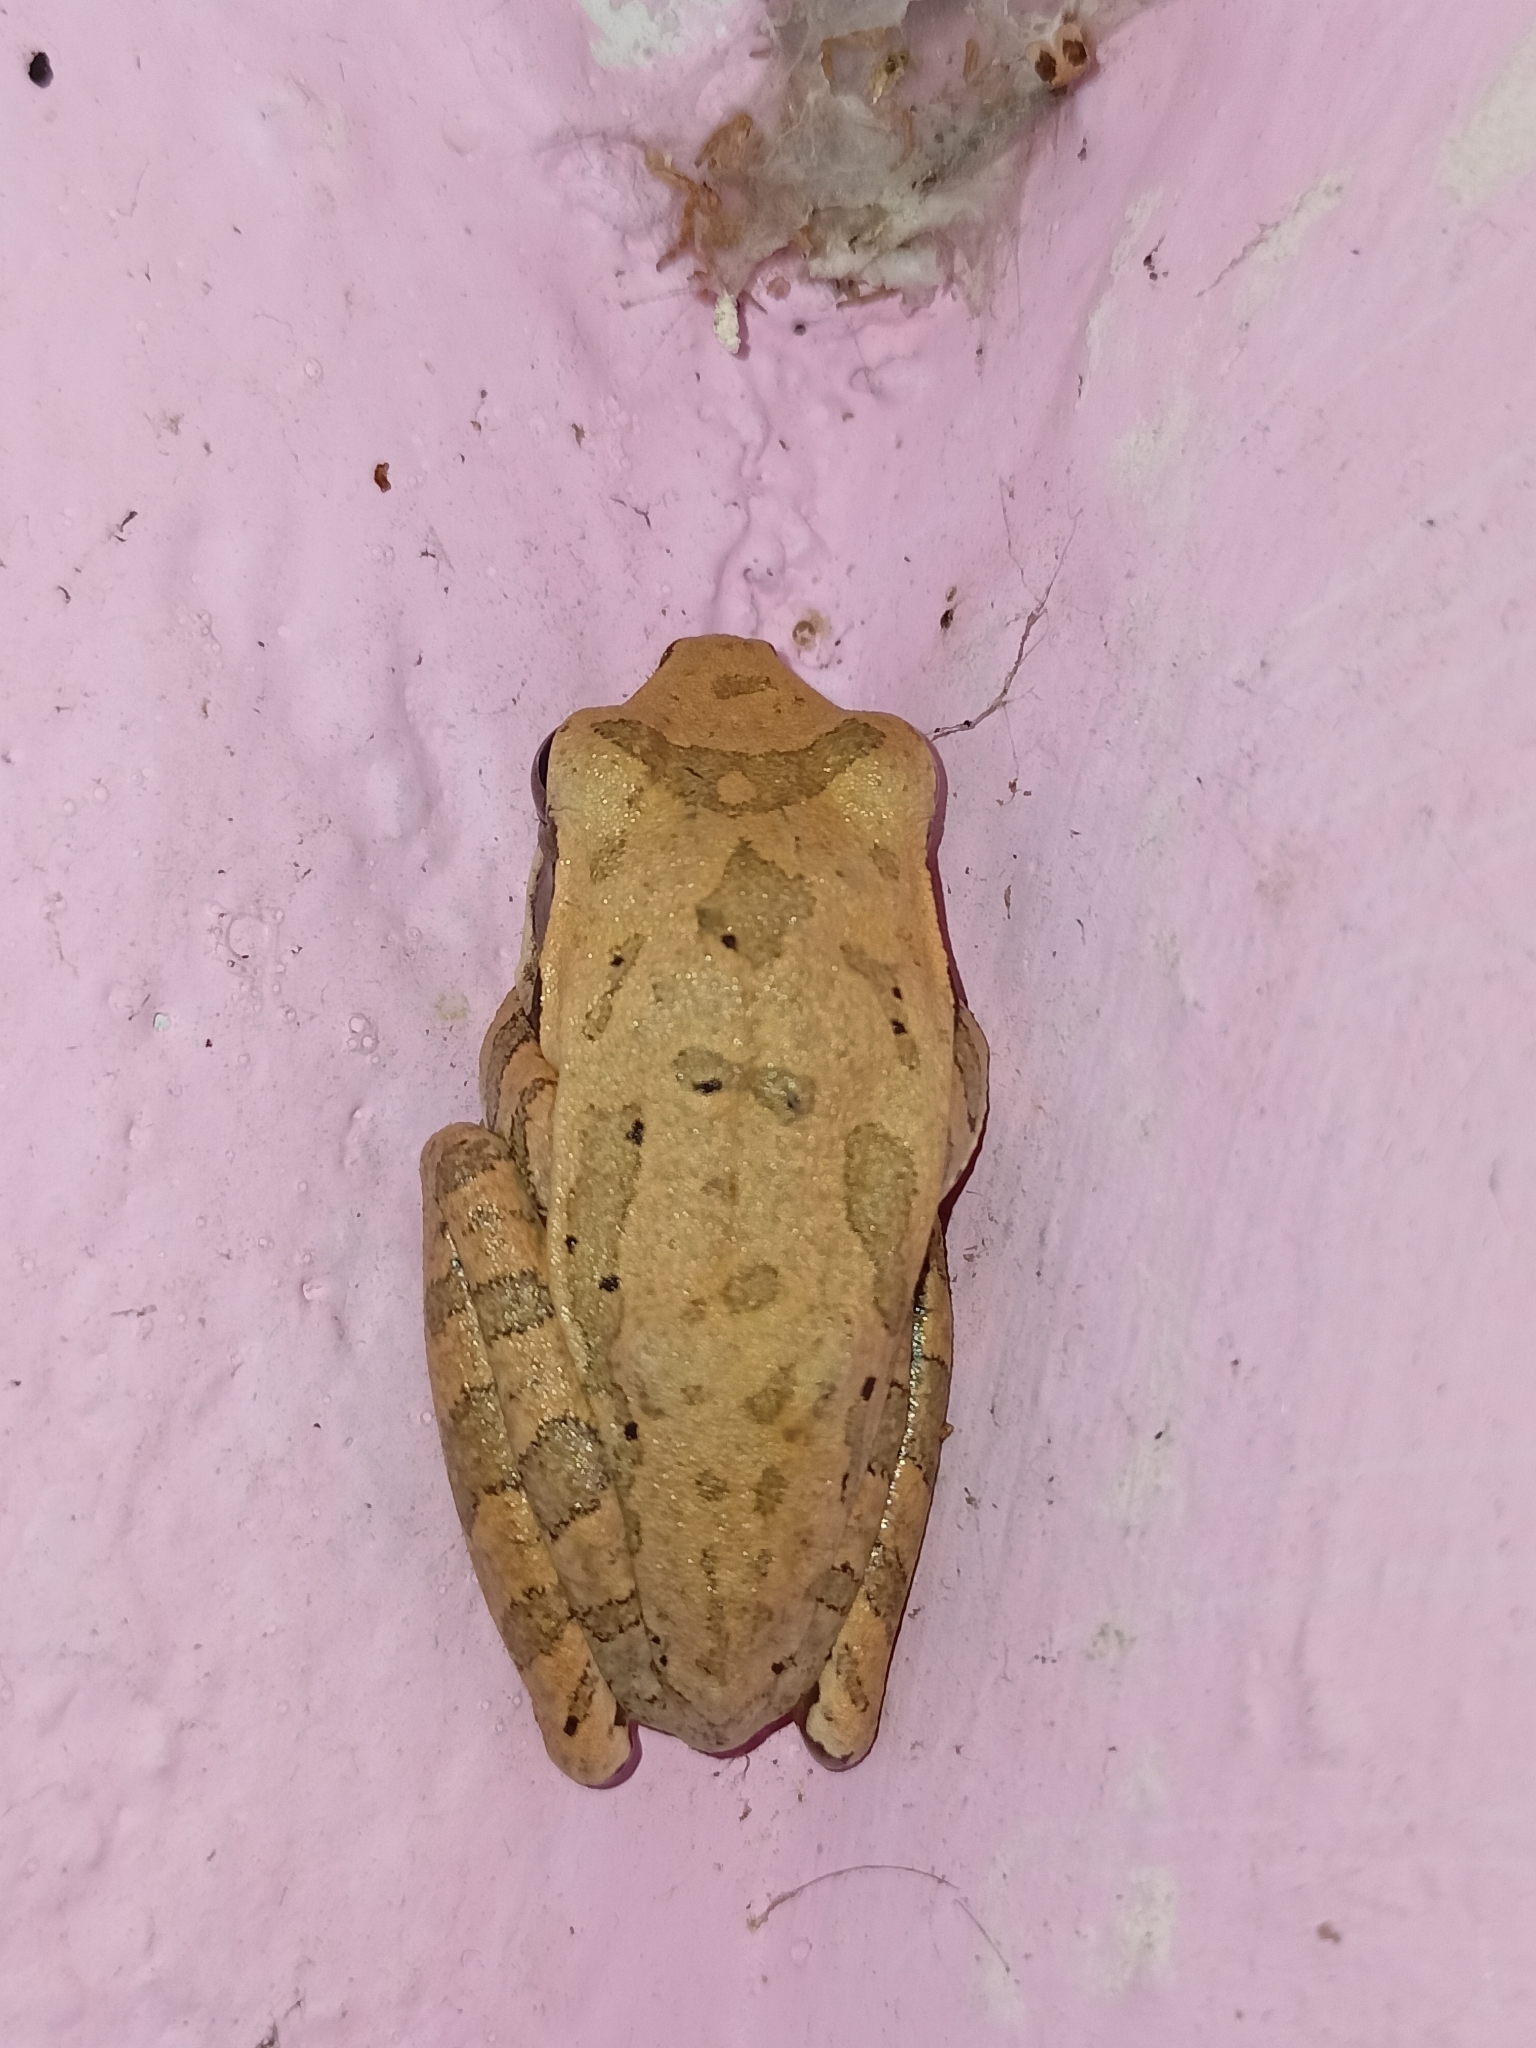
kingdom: Animalia
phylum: Chordata
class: Amphibia
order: Anura
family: Rhacophoridae
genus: Polypedates
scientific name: Polypedates maculatus
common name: Himalayan tree frog
